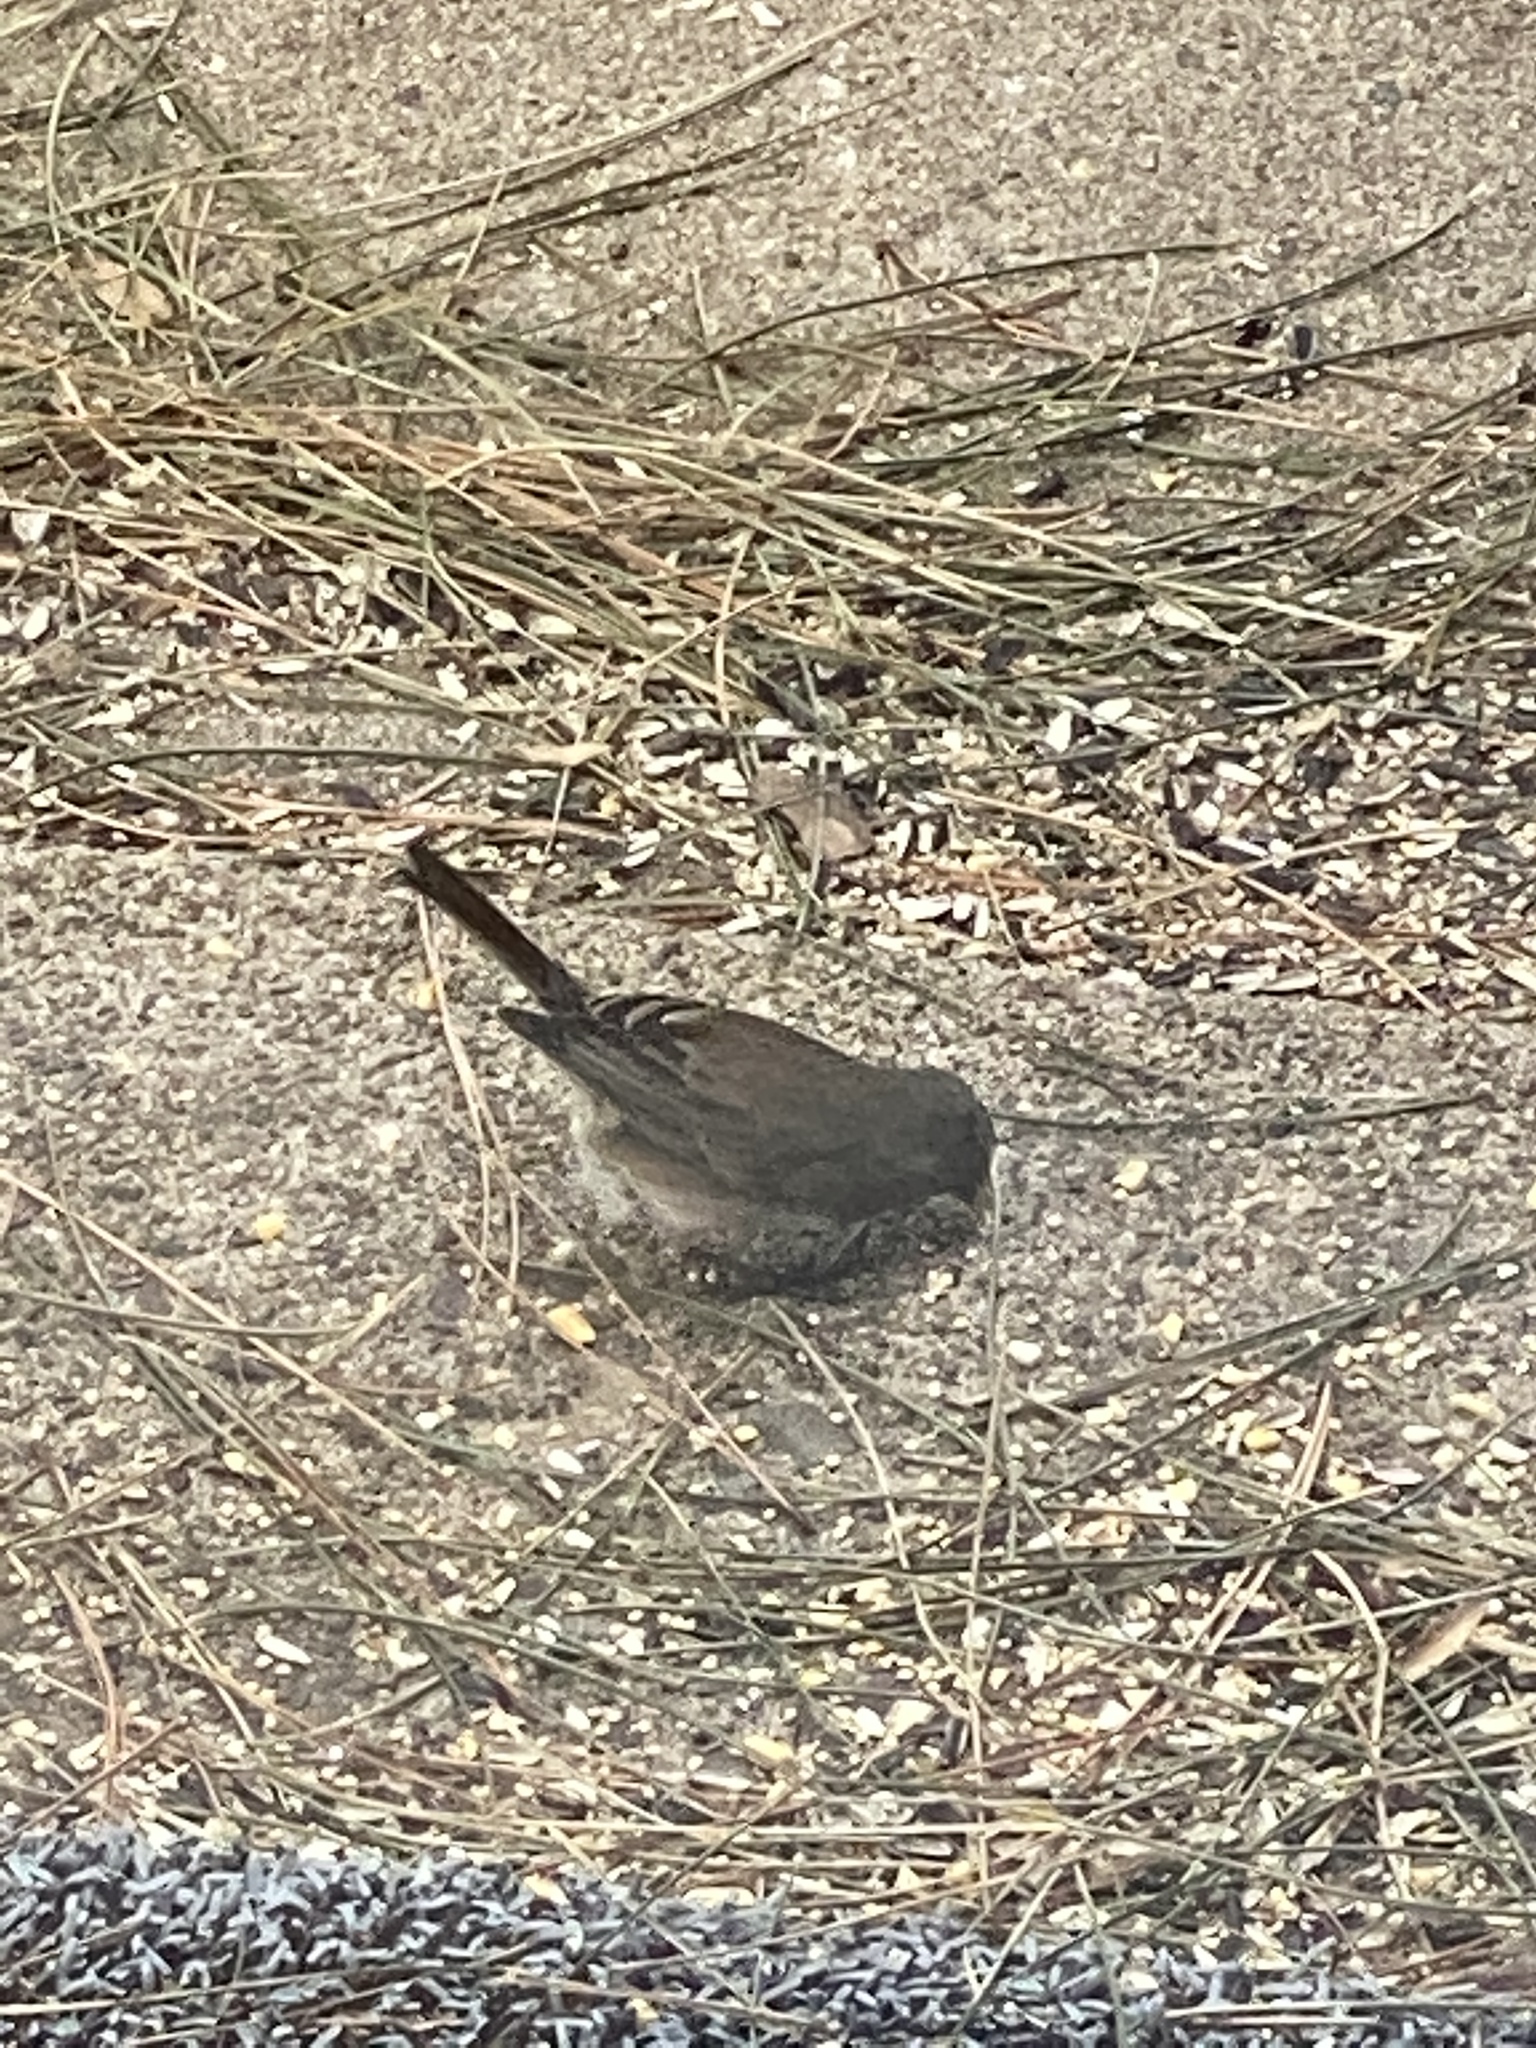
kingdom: Animalia
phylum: Chordata
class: Aves
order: Passeriformes
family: Passerellidae
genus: Junco
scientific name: Junco hyemalis
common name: Dark-eyed junco
